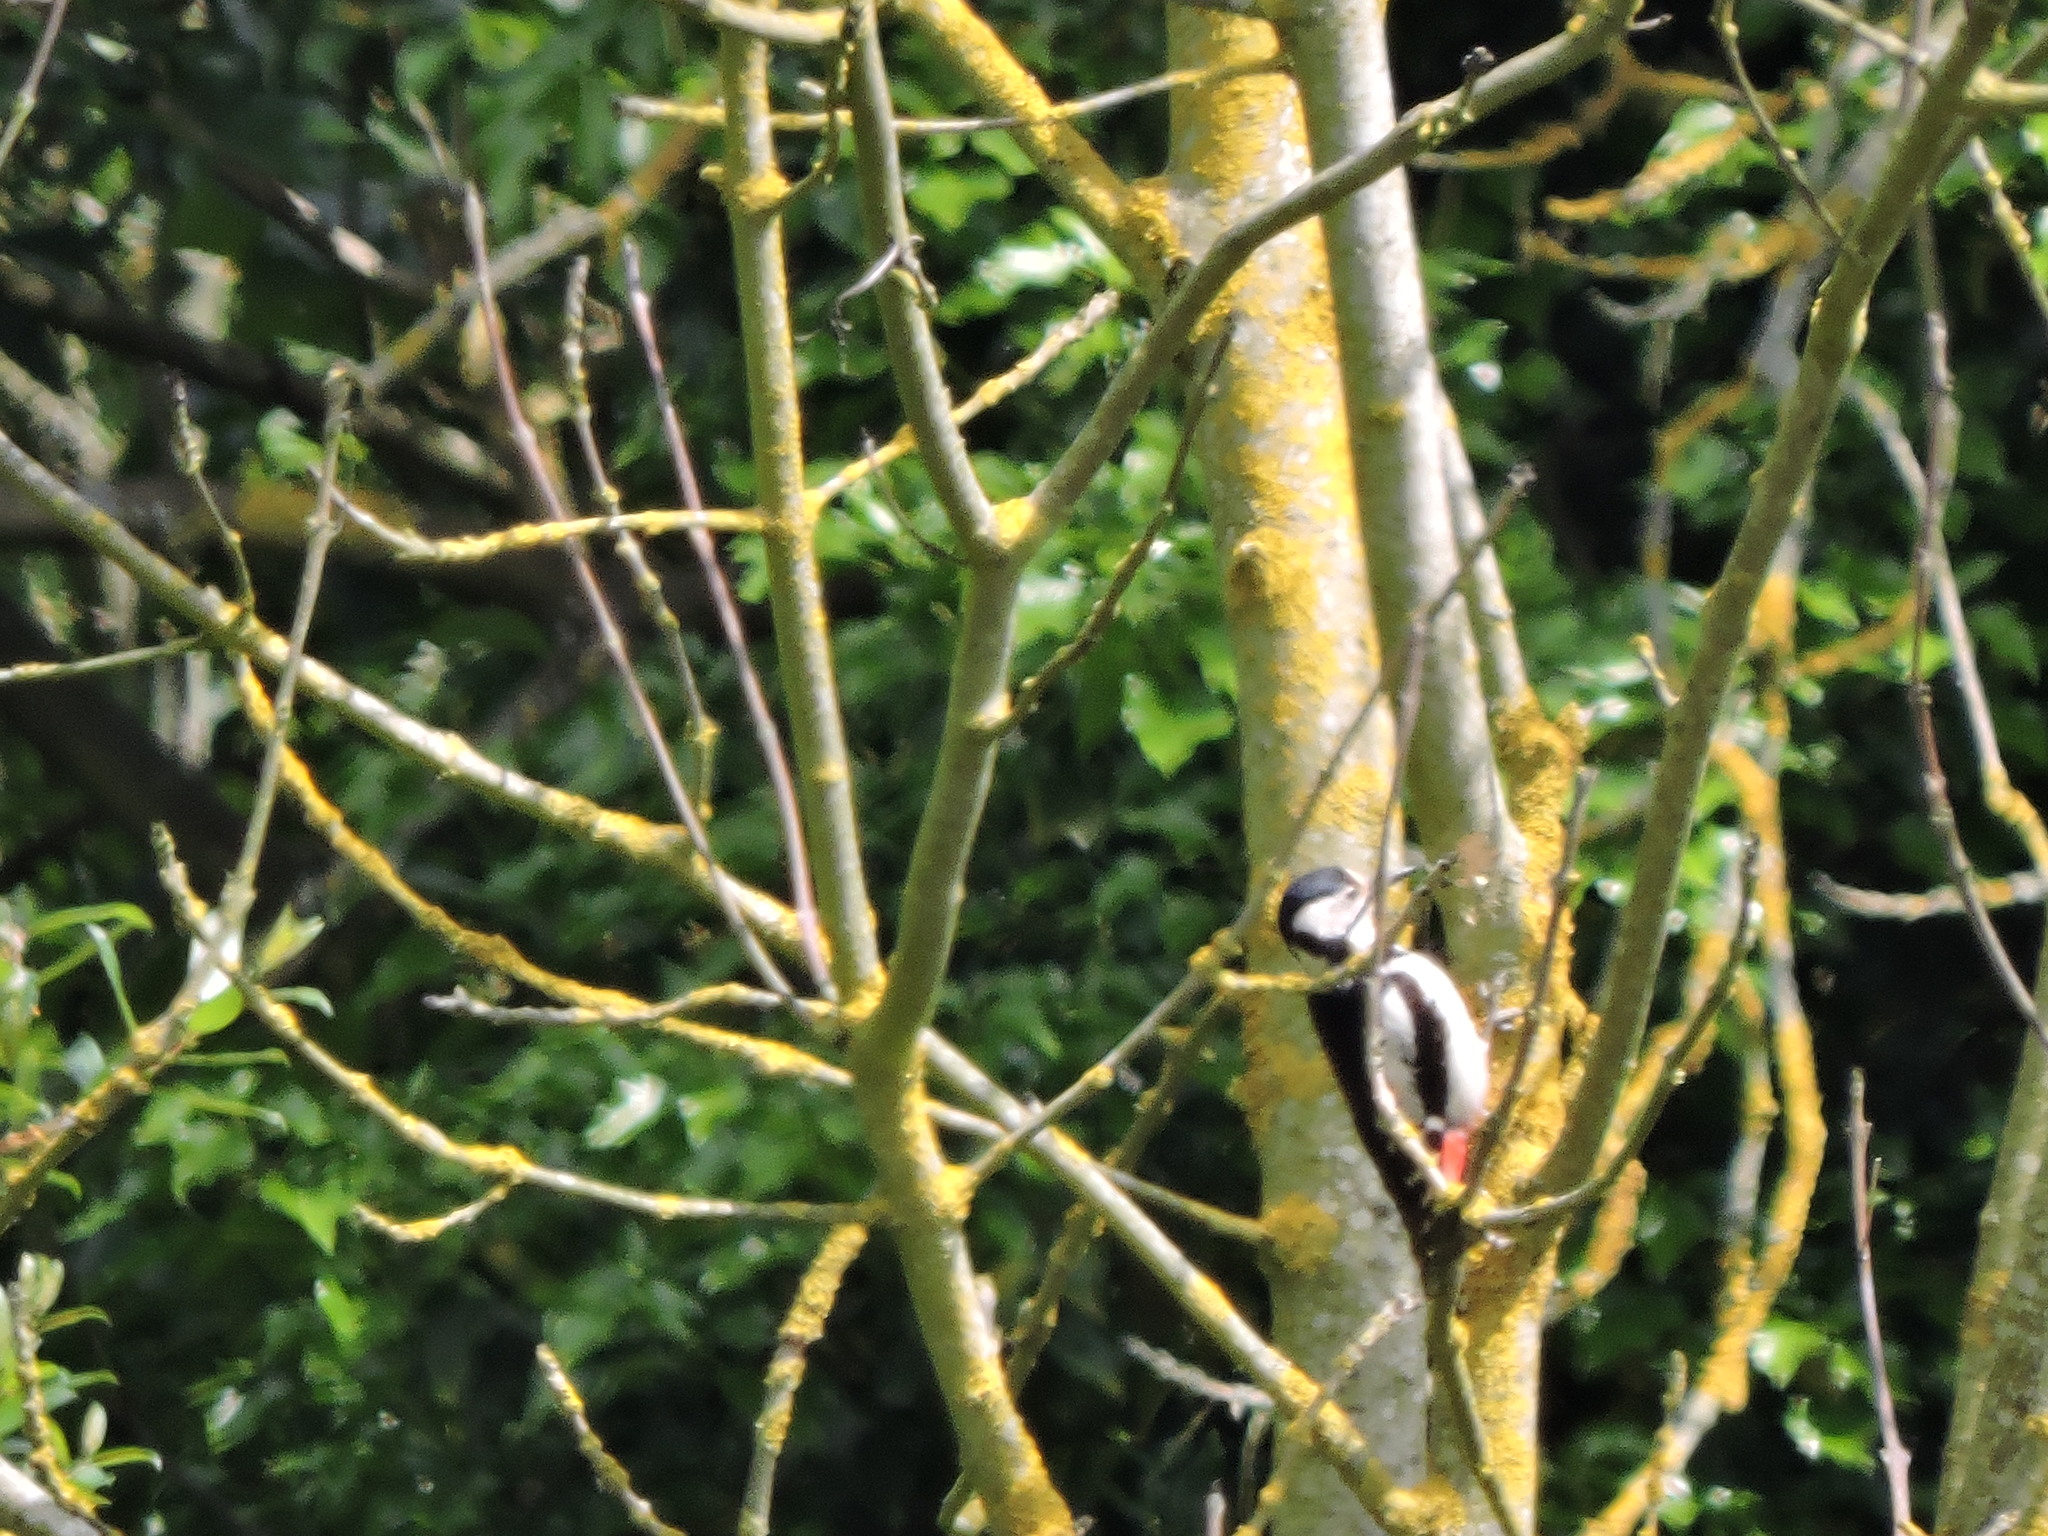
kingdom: Animalia
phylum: Chordata
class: Aves
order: Piciformes
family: Picidae
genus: Dendrocopos
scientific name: Dendrocopos major
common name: Great spotted woodpecker
